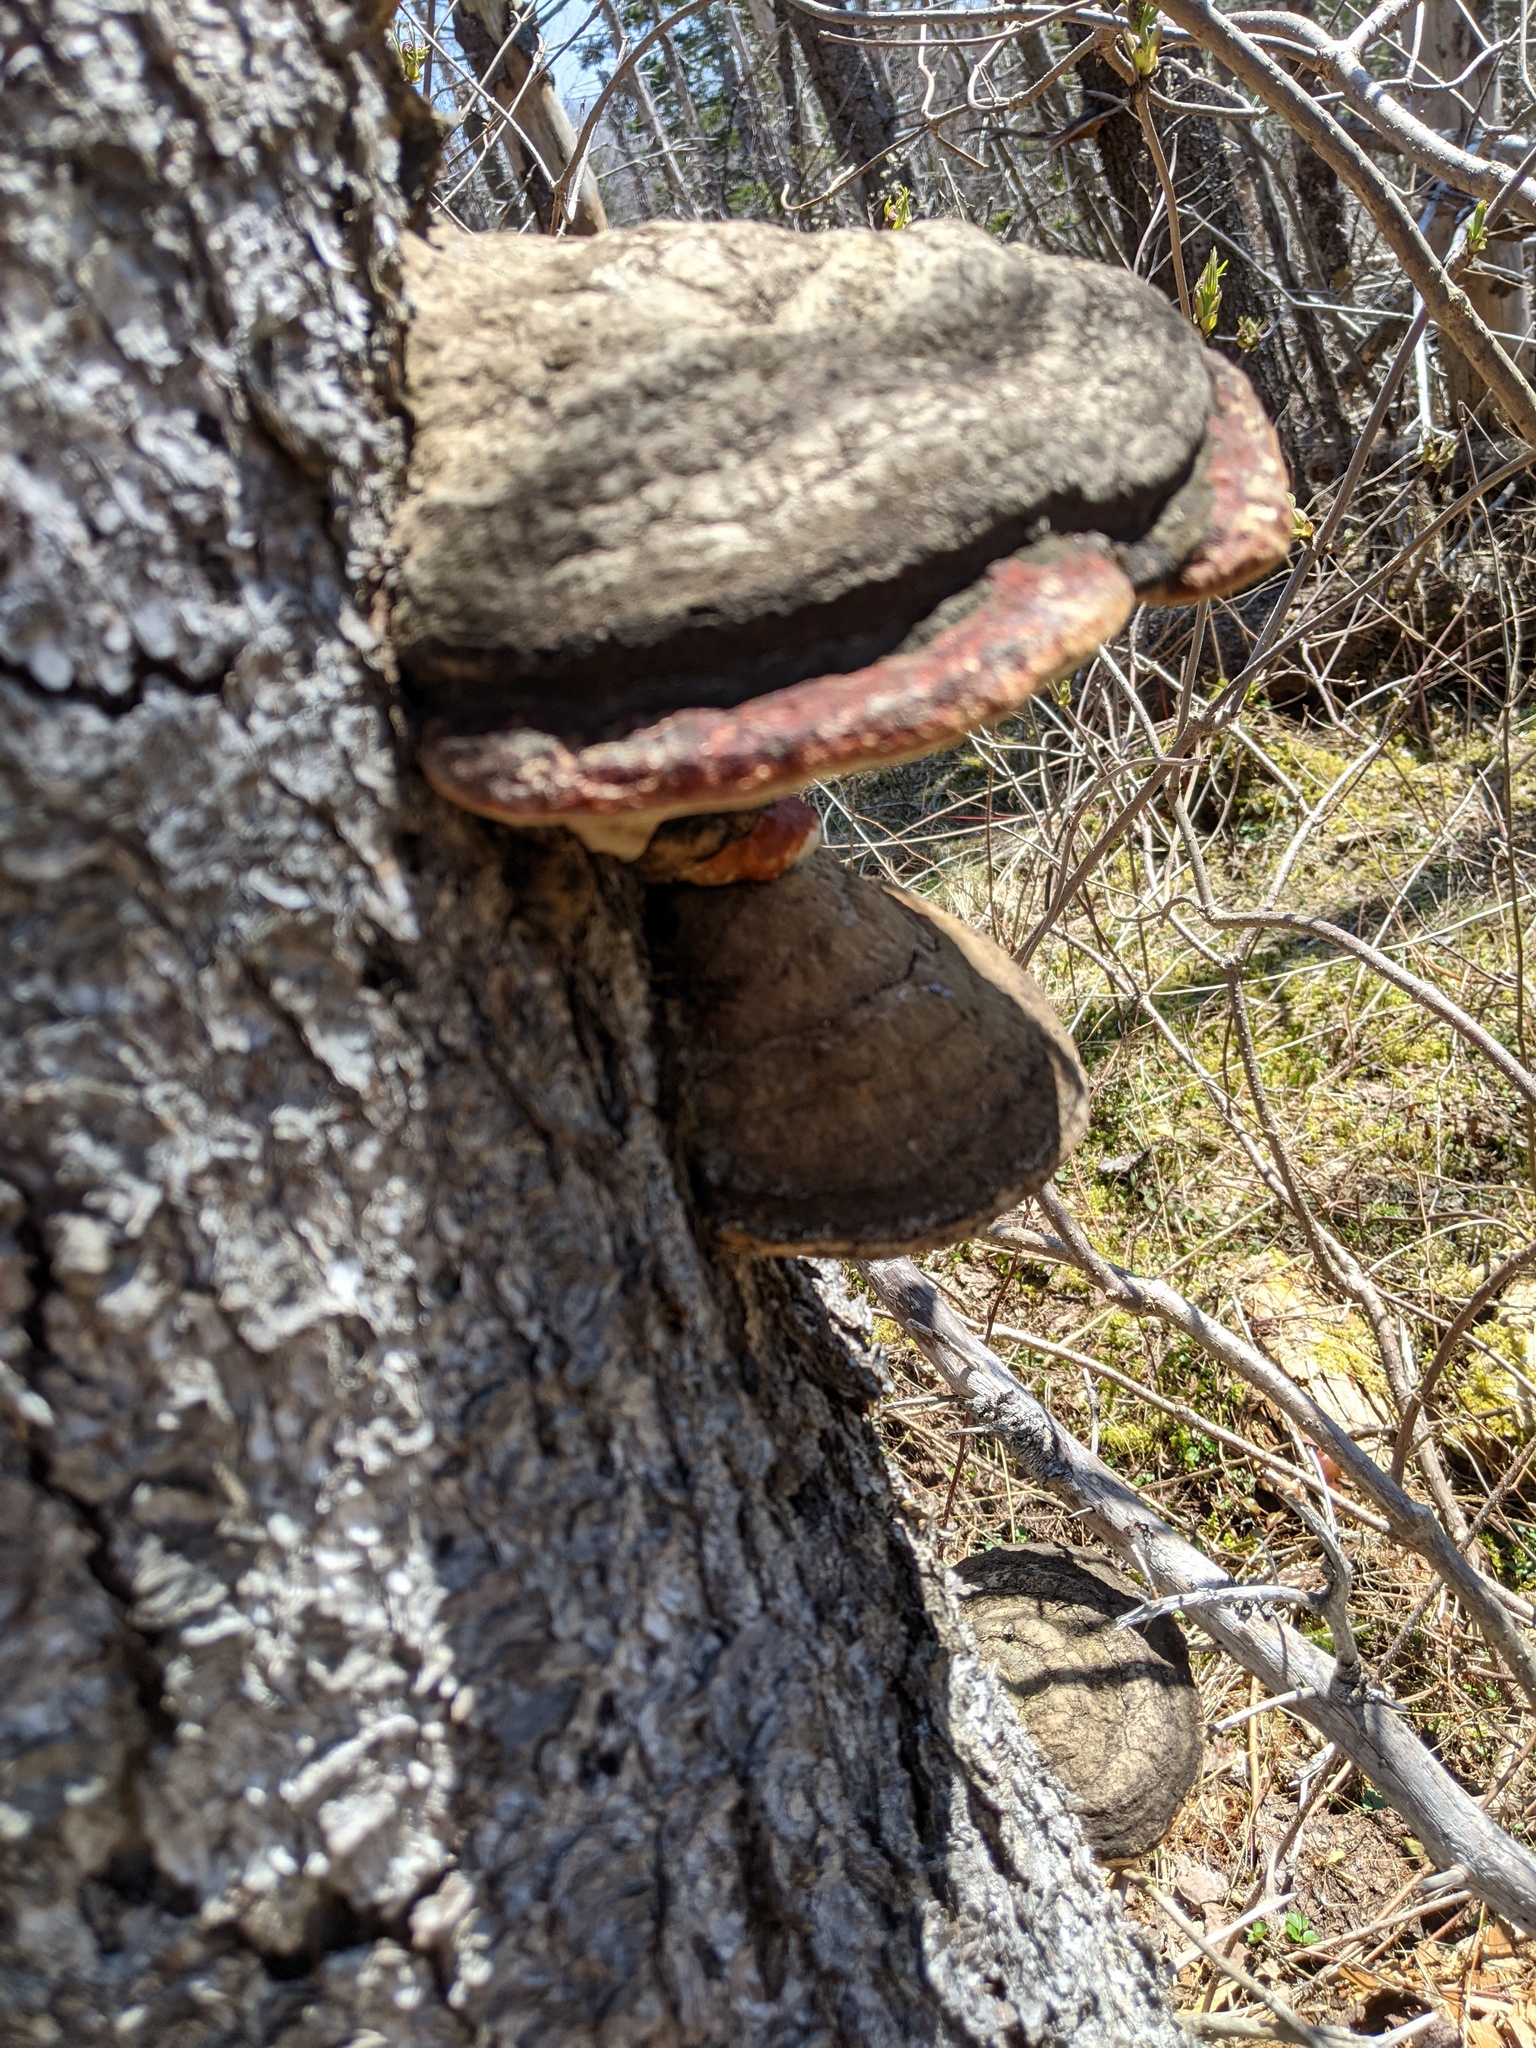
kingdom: Fungi
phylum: Basidiomycota
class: Agaricomycetes
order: Polyporales
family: Fomitopsidaceae
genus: Fomitopsis
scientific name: Fomitopsis mounceae
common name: Northern red belt
